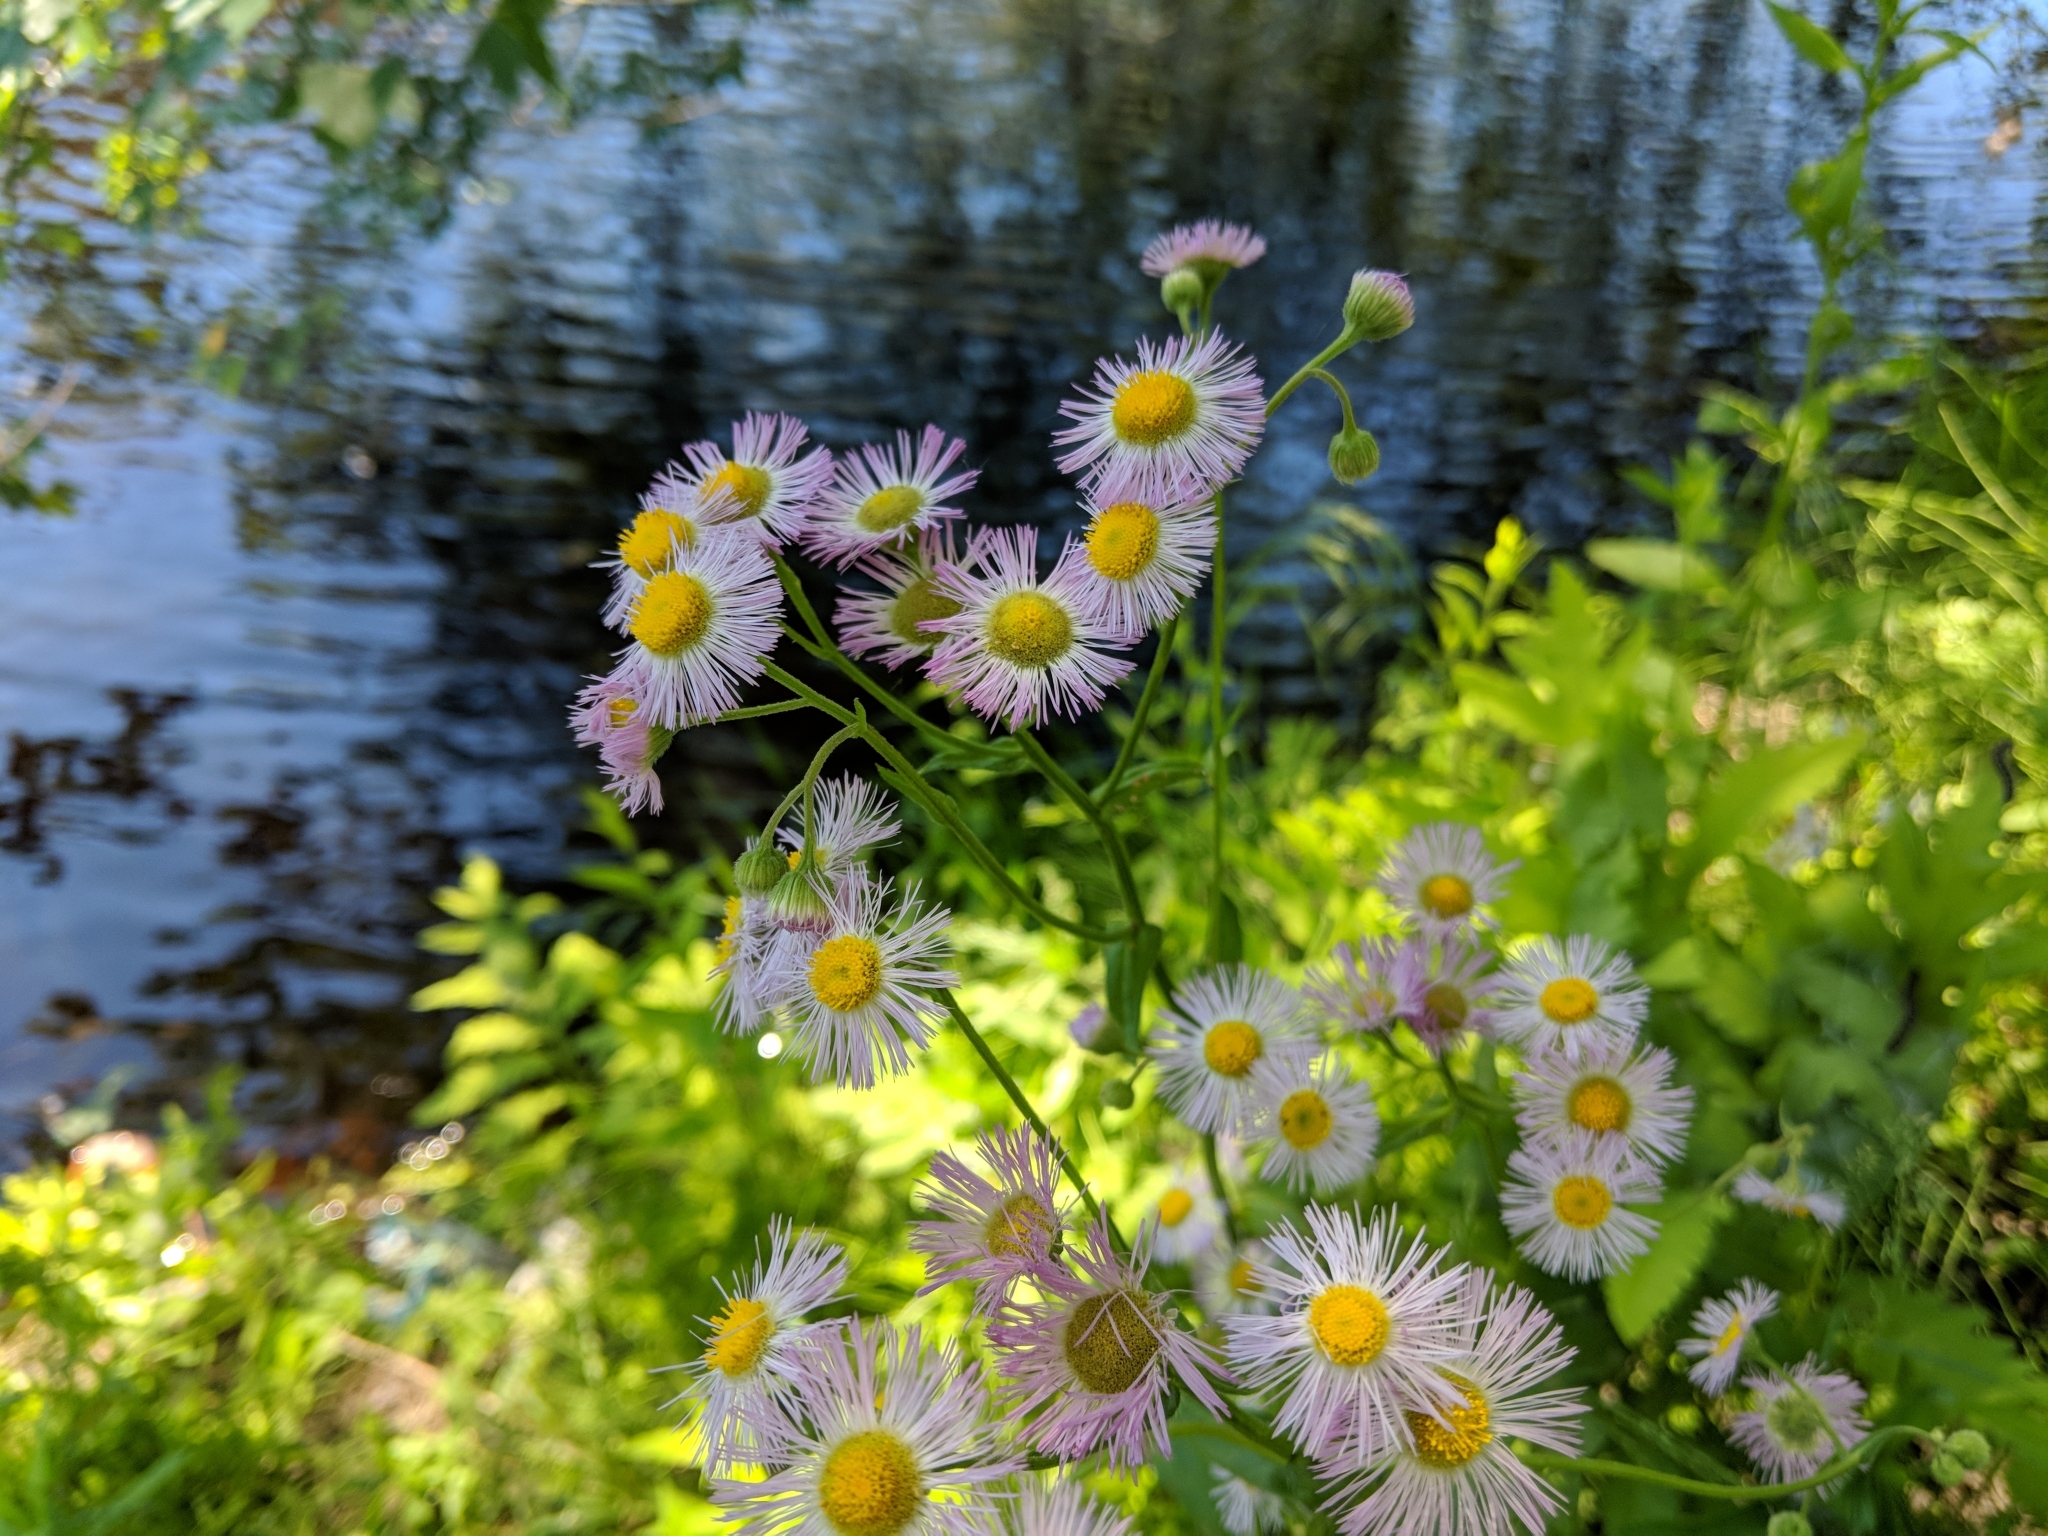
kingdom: Plantae
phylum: Tracheophyta
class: Magnoliopsida
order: Asterales
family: Asteraceae
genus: Erigeron
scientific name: Erigeron philadelphicus
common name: Robin's-plantain
